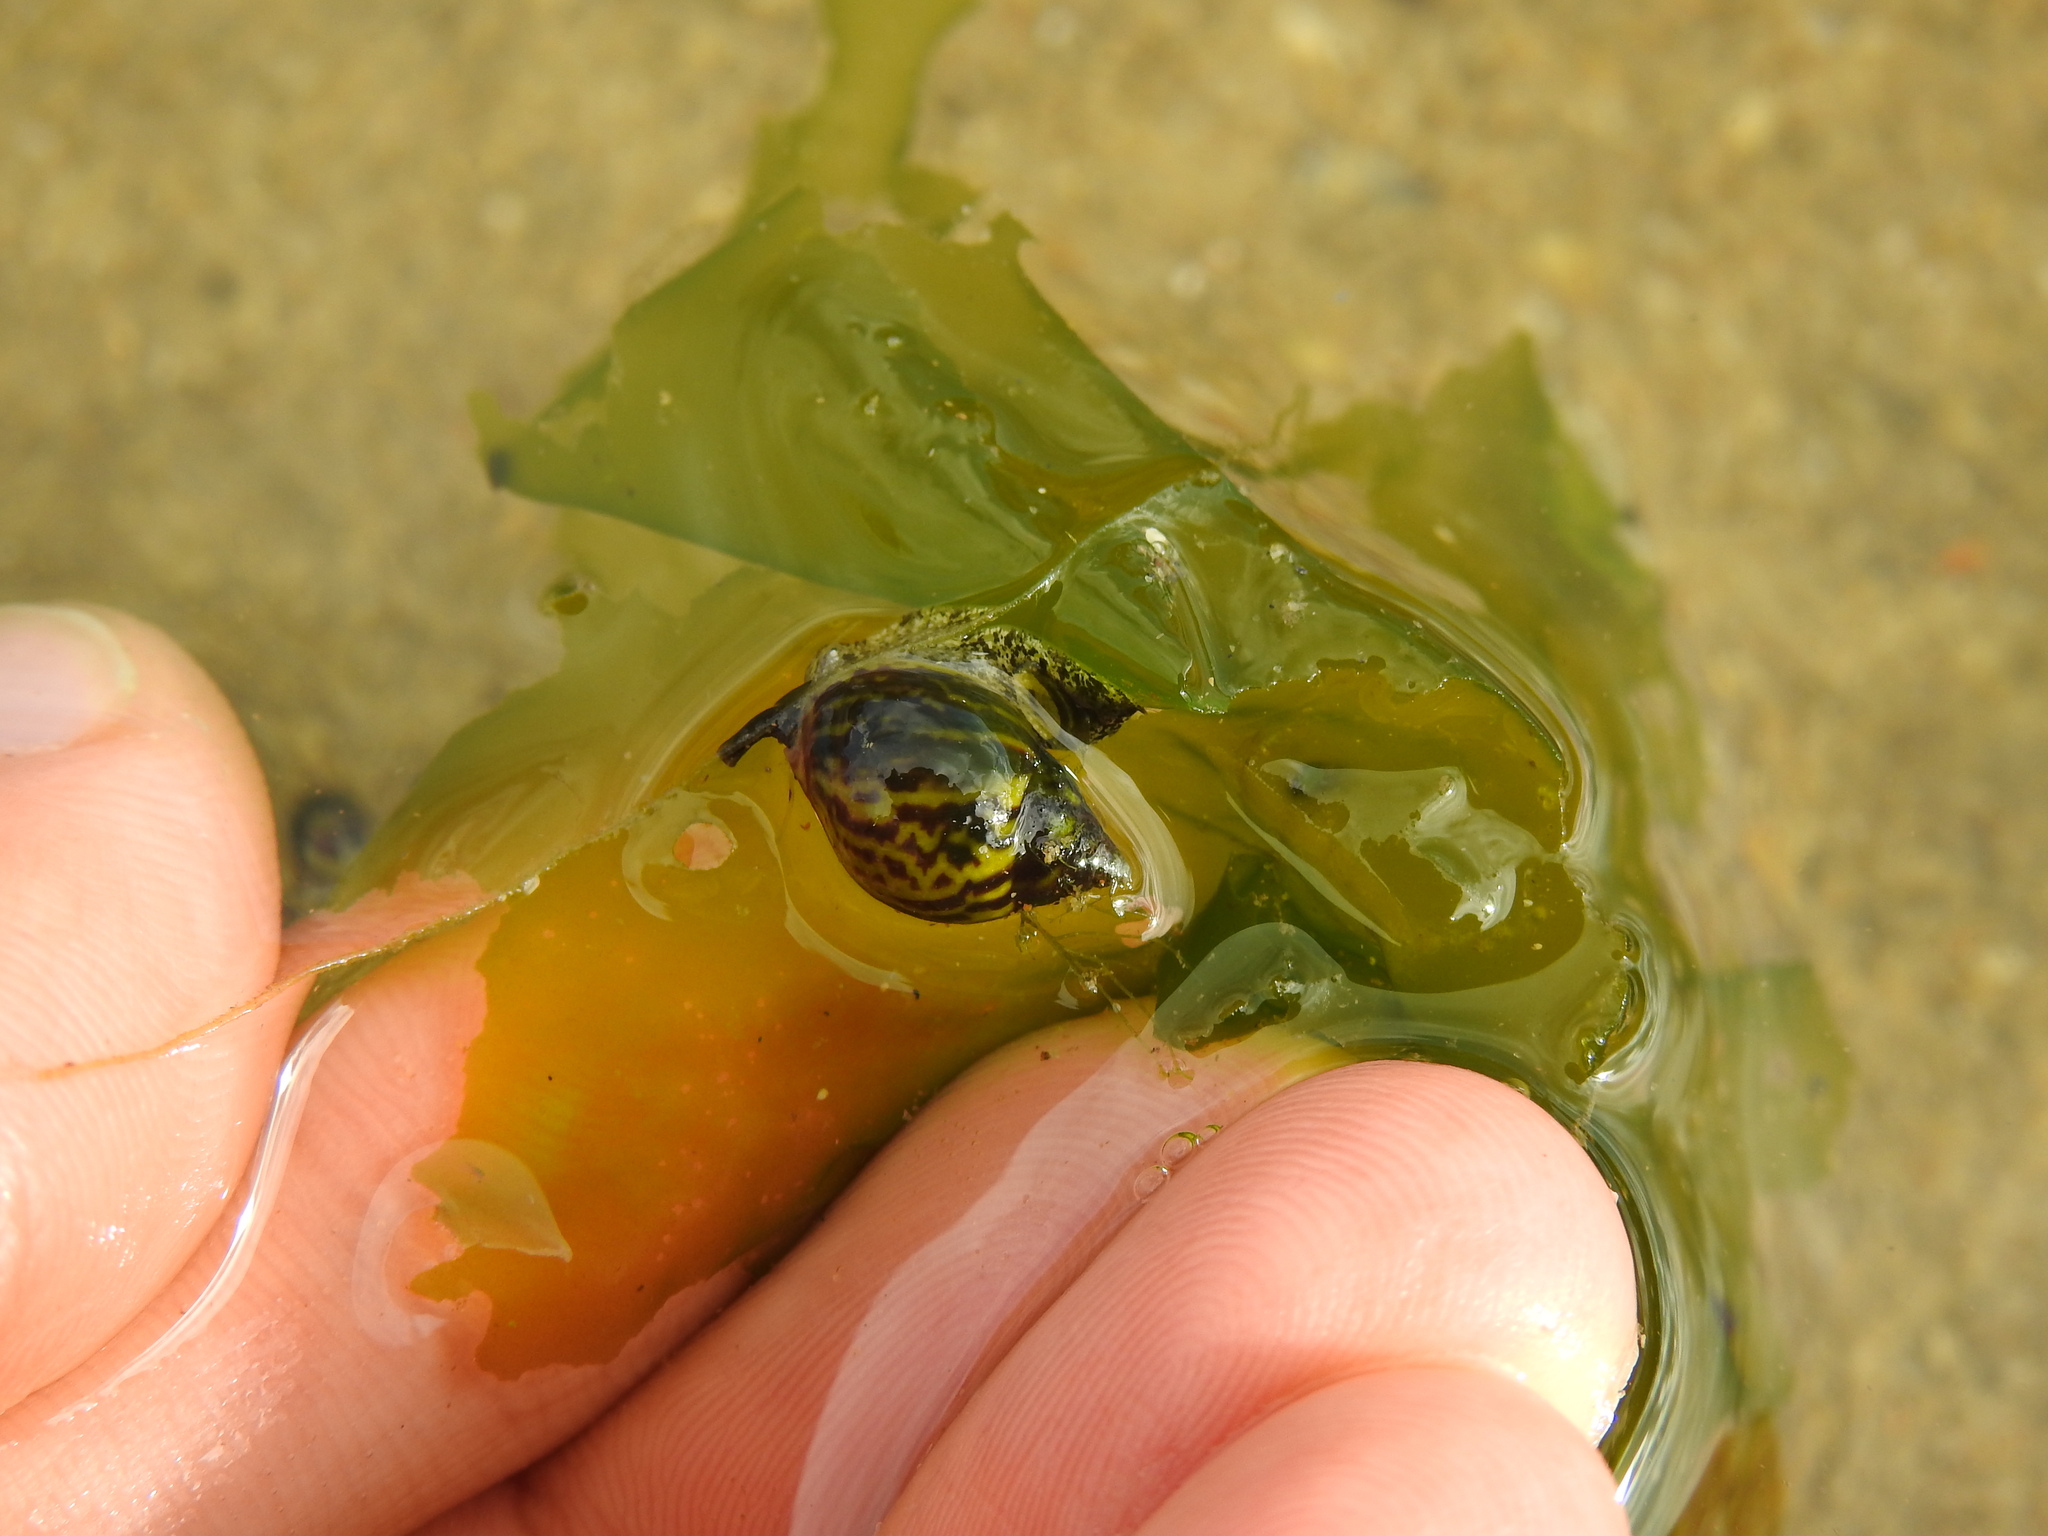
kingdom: Animalia
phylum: Mollusca
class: Gastropoda
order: Neogastropoda
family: Nassariidae
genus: Tritia
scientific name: Tritia pfeifferi
